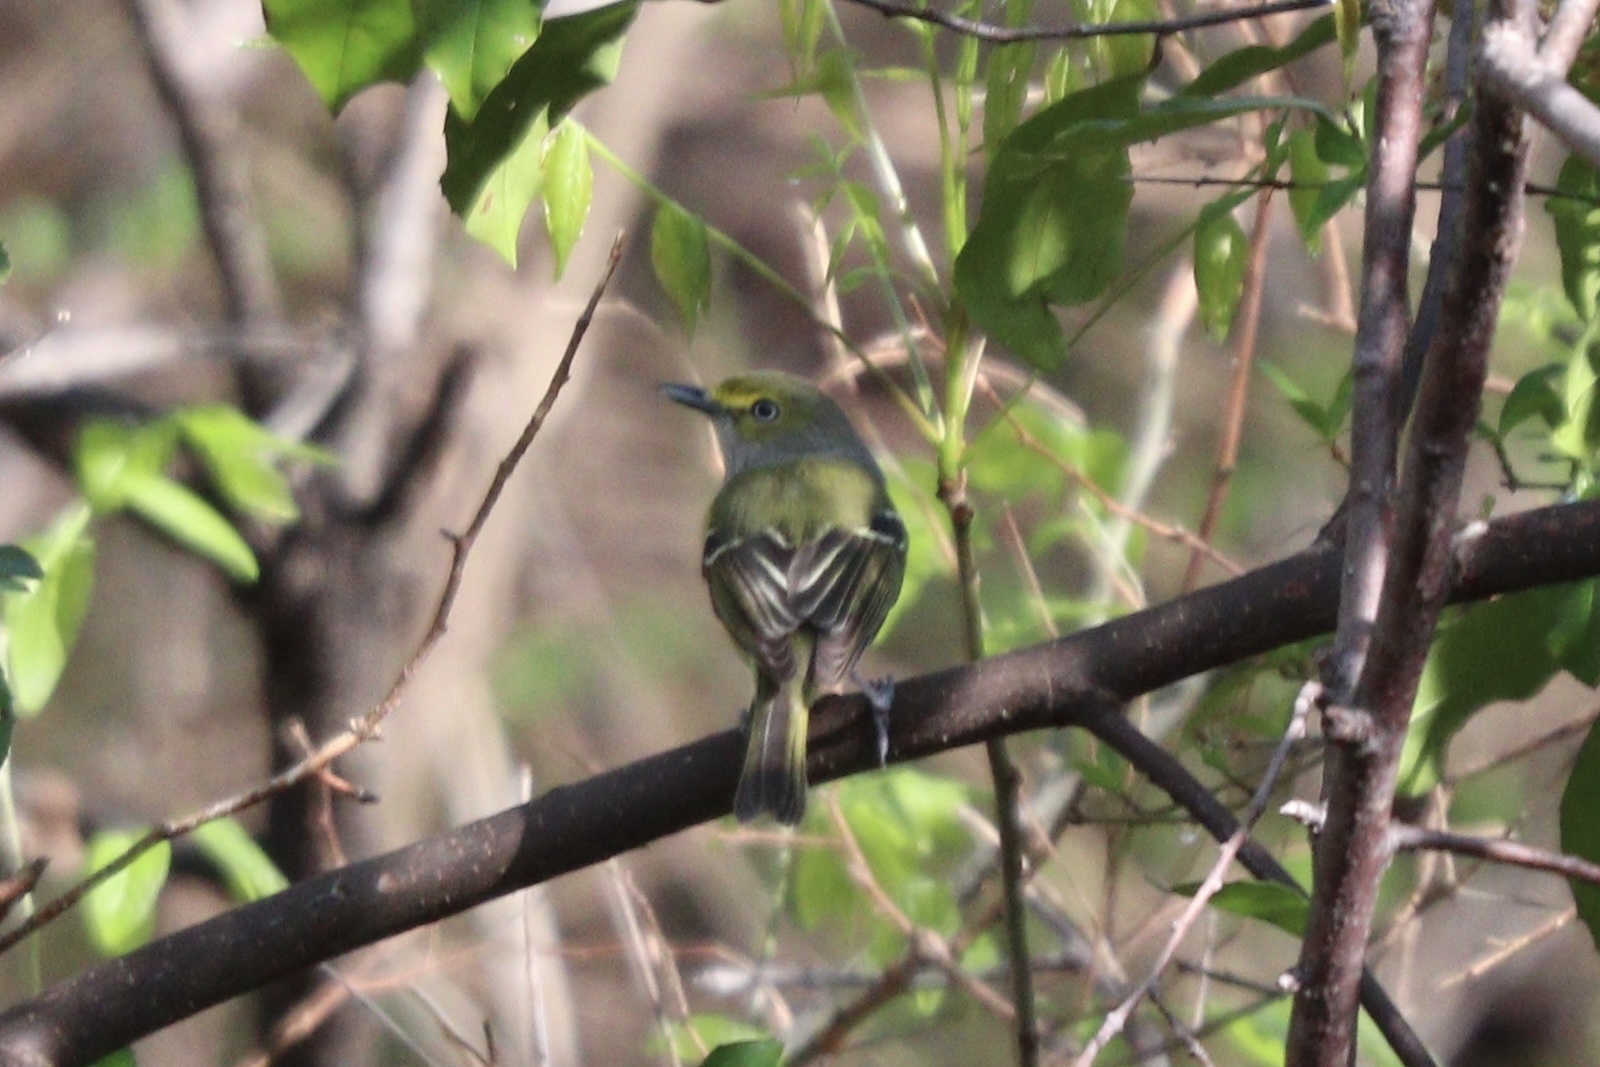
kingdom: Animalia
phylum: Chordata
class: Aves
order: Passeriformes
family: Vireonidae
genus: Vireo
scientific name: Vireo griseus
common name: White-eyed vireo
